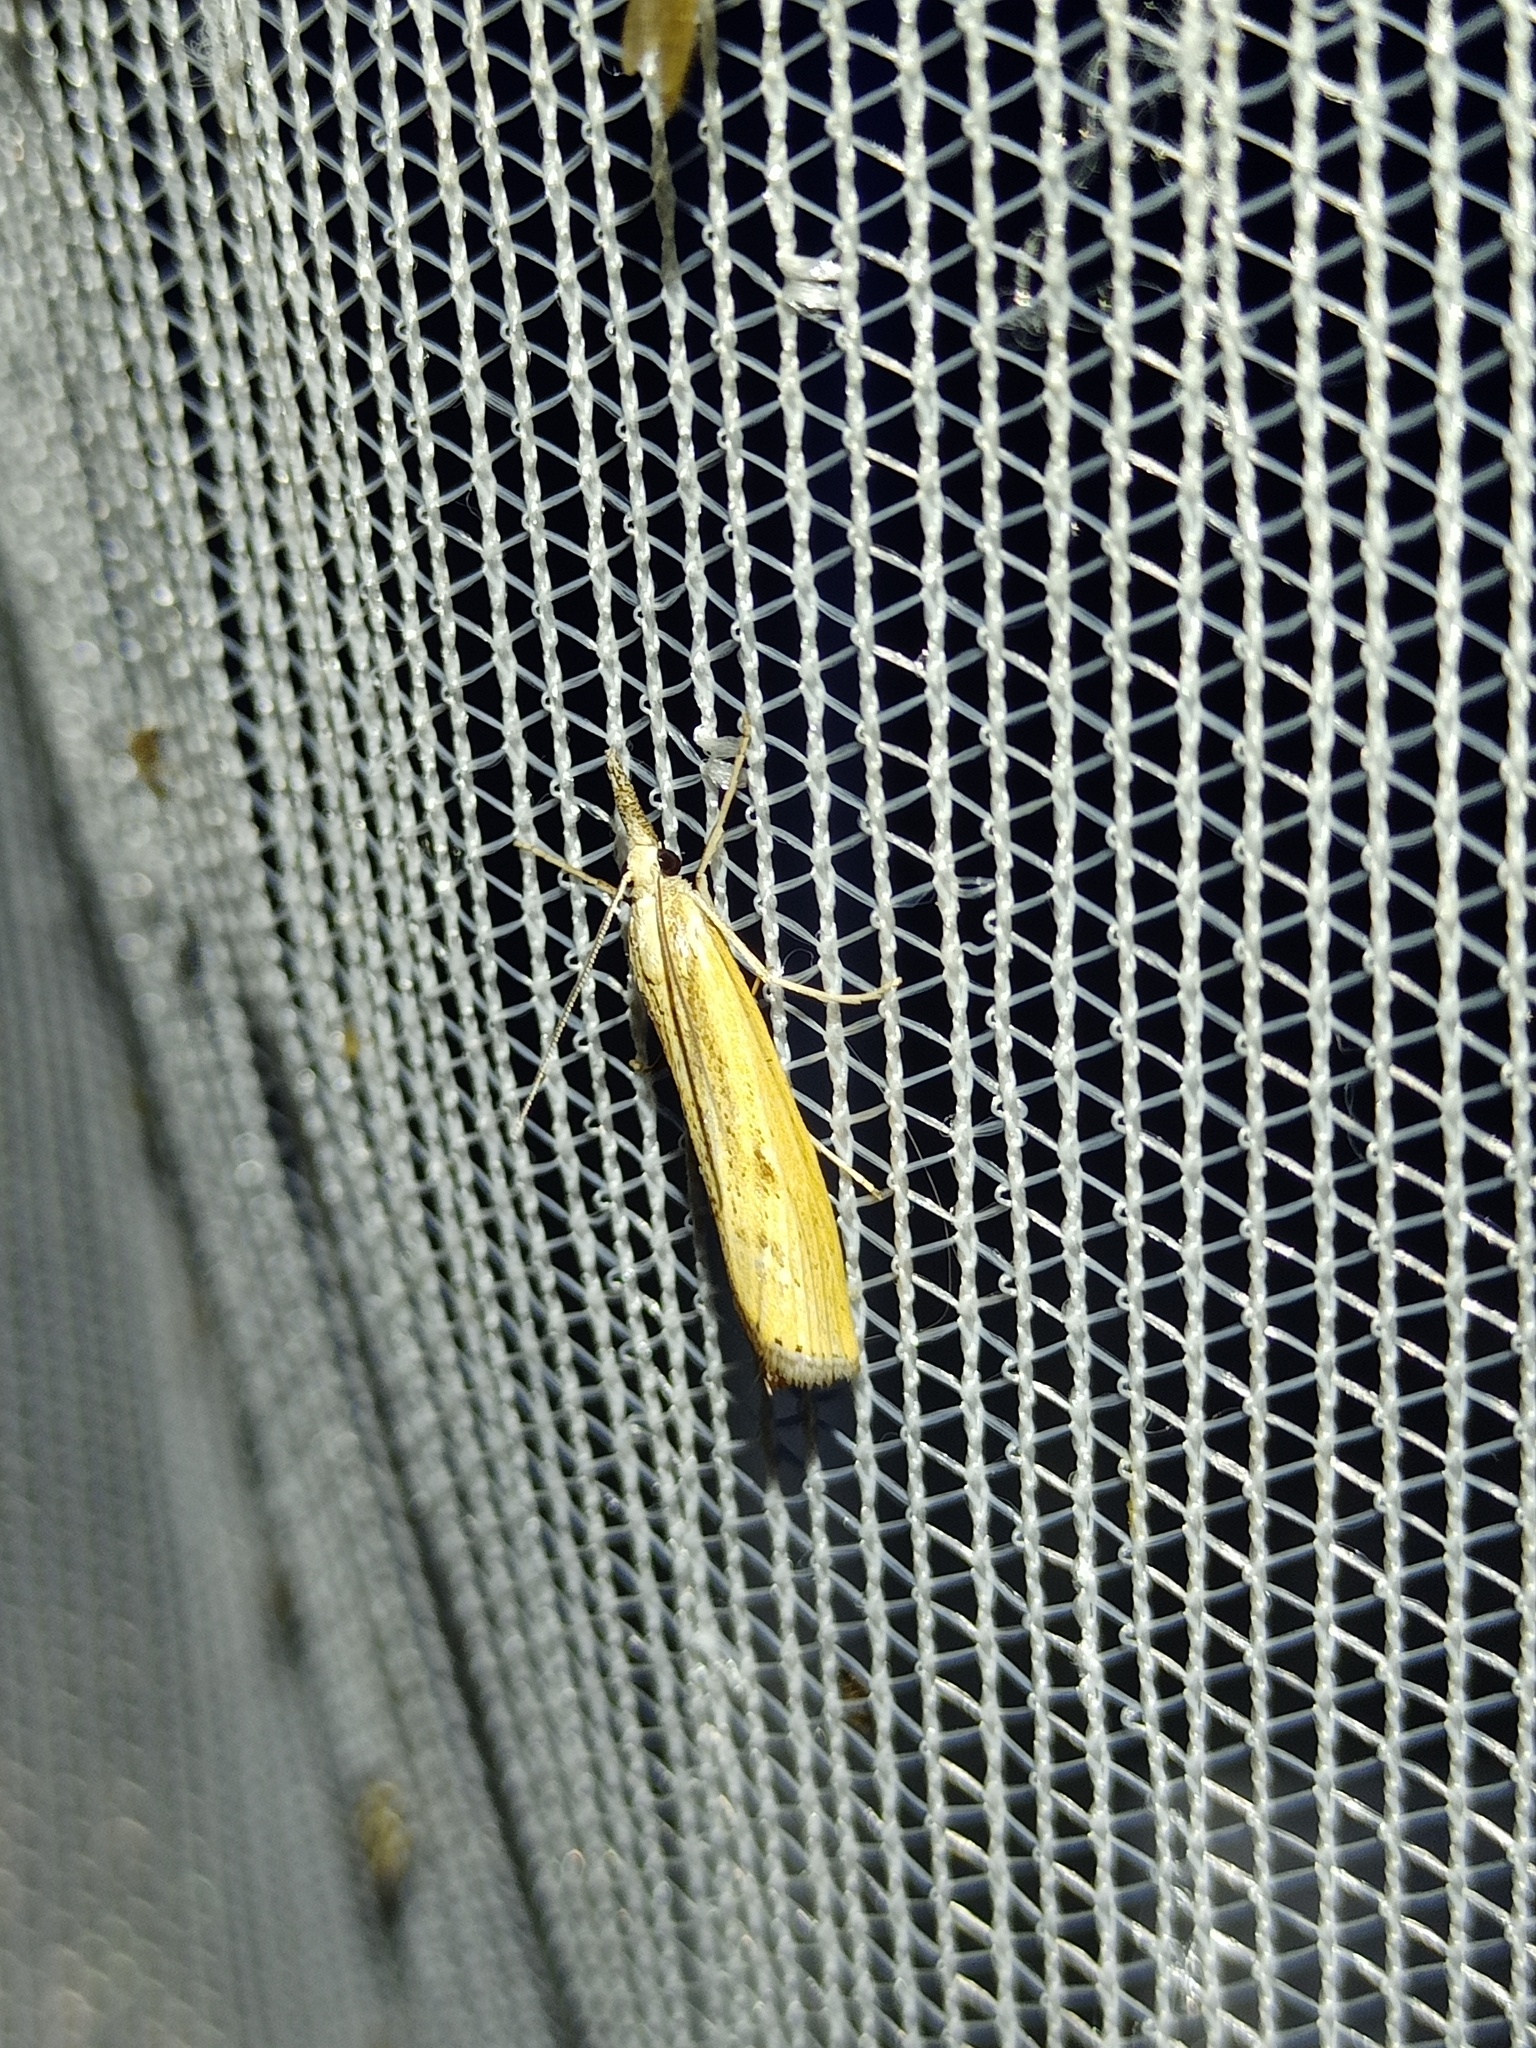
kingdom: Animalia
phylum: Arthropoda
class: Insecta
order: Lepidoptera
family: Crambidae
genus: Agriphila
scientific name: Agriphila inquinatella
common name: Barred grass-veneer
